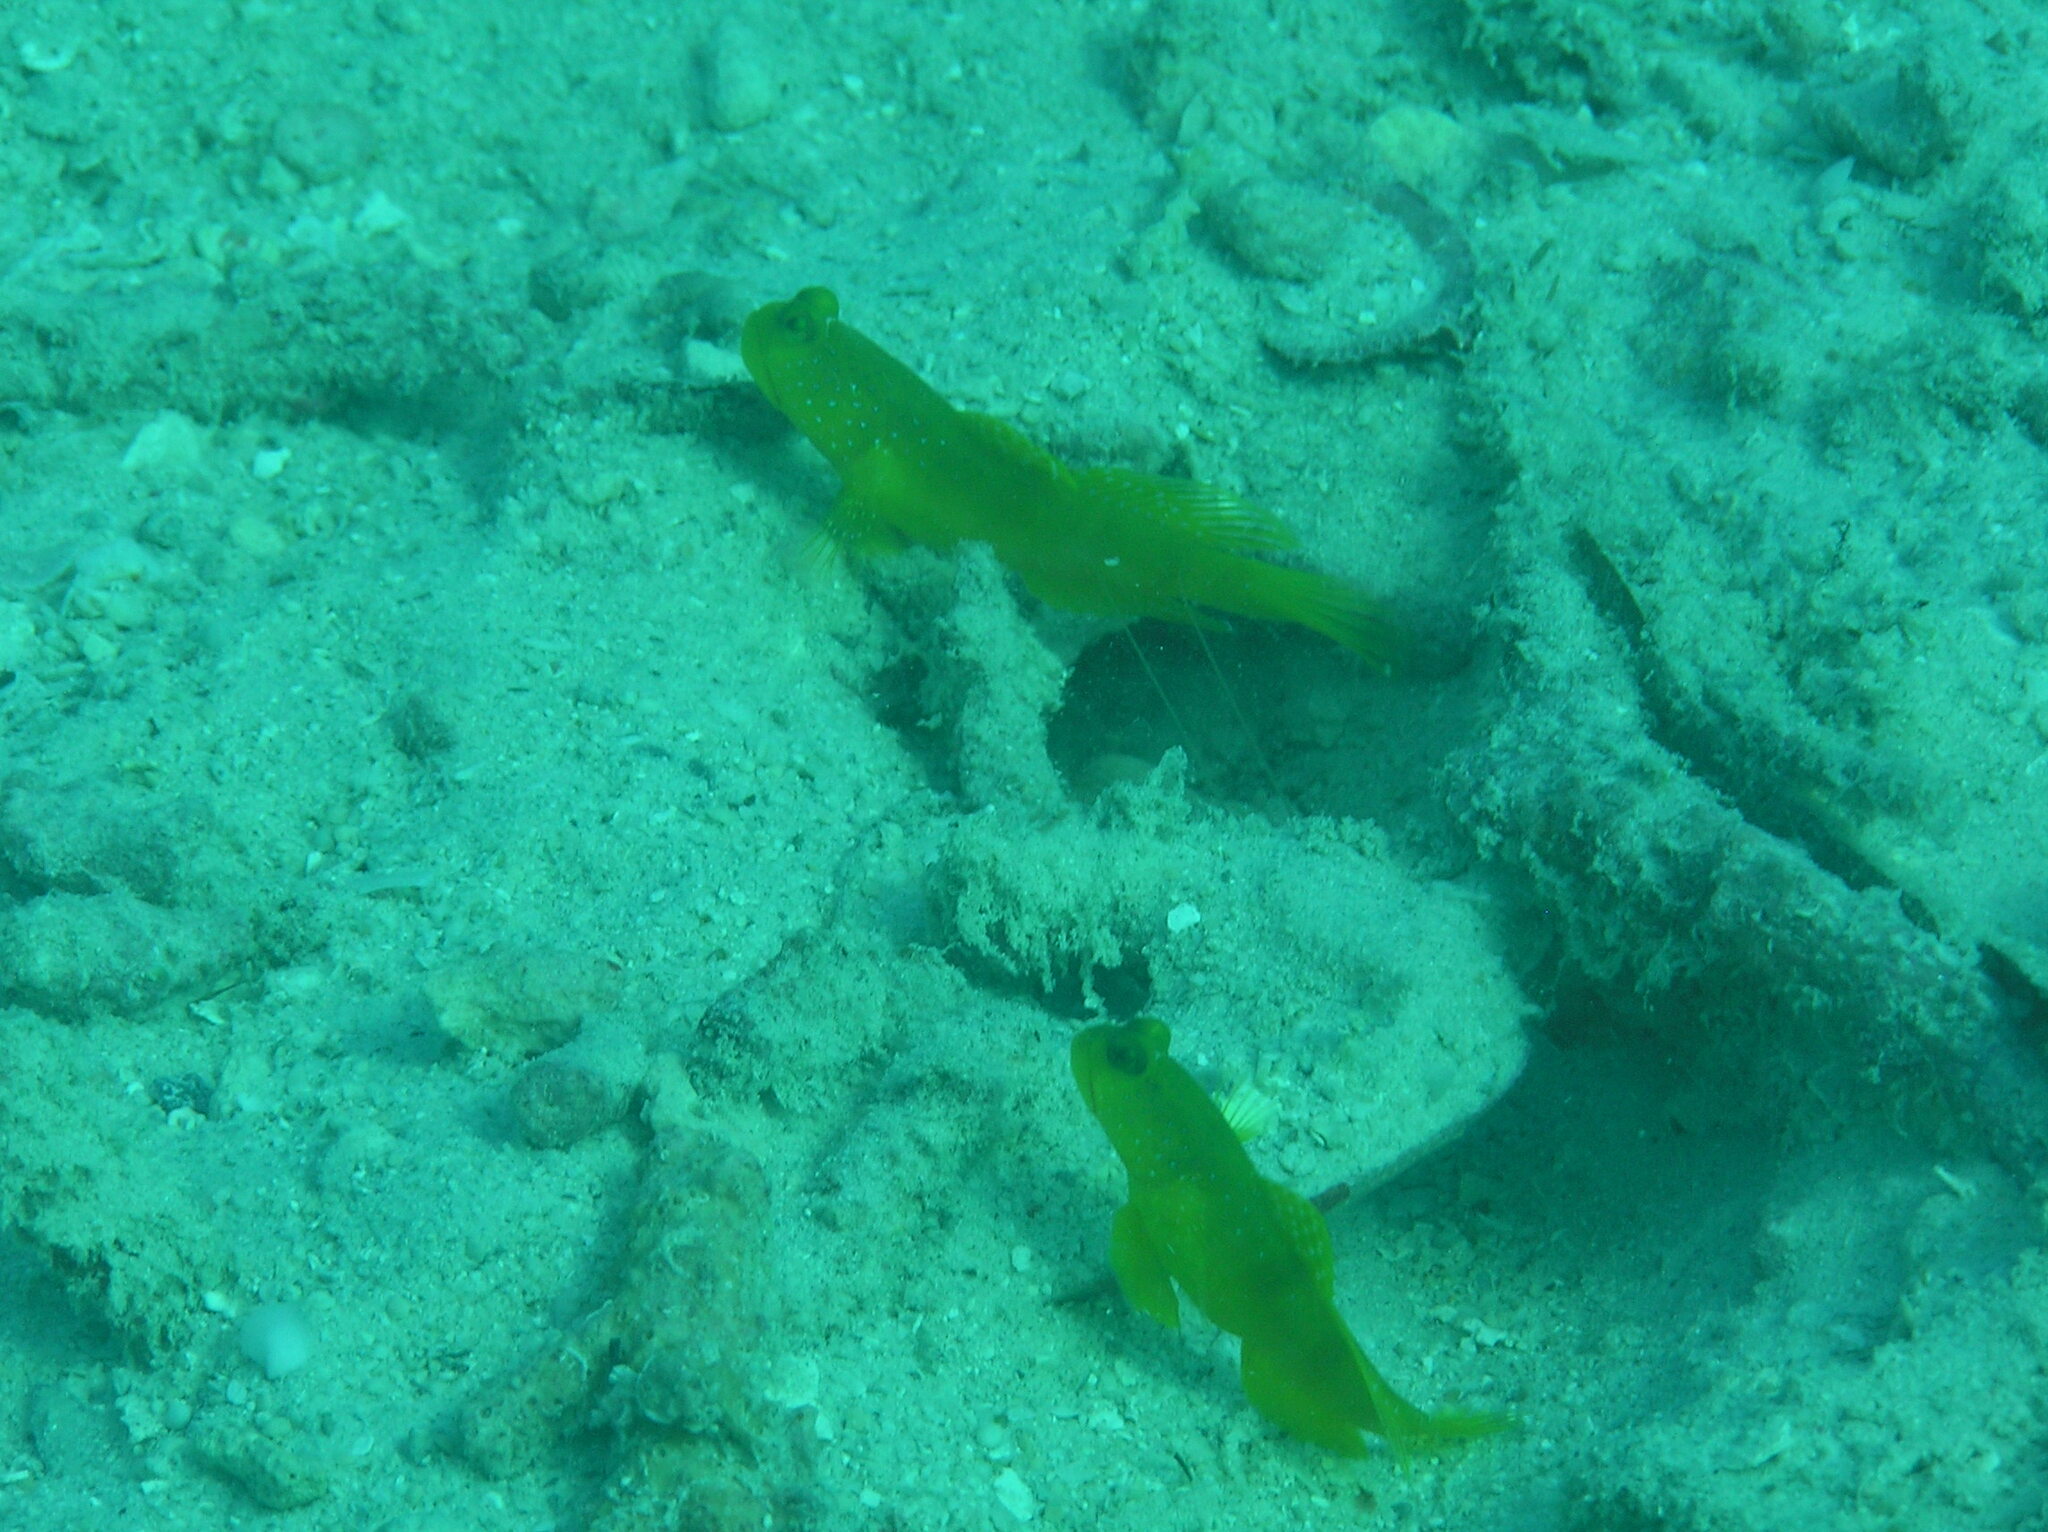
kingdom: Animalia
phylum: Chordata
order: Perciformes
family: Gobiidae
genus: Cryptocentrus
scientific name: Cryptocentrus cinctus
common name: Yellow shrimp goby
